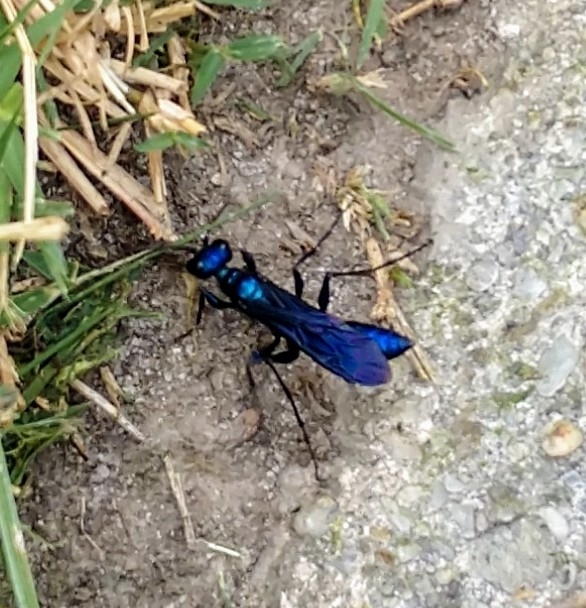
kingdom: Animalia
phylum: Arthropoda
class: Insecta
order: Hymenoptera
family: Sphecidae
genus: Chlorion
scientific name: Chlorion aerarium
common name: Steel-blue cricket hunter
